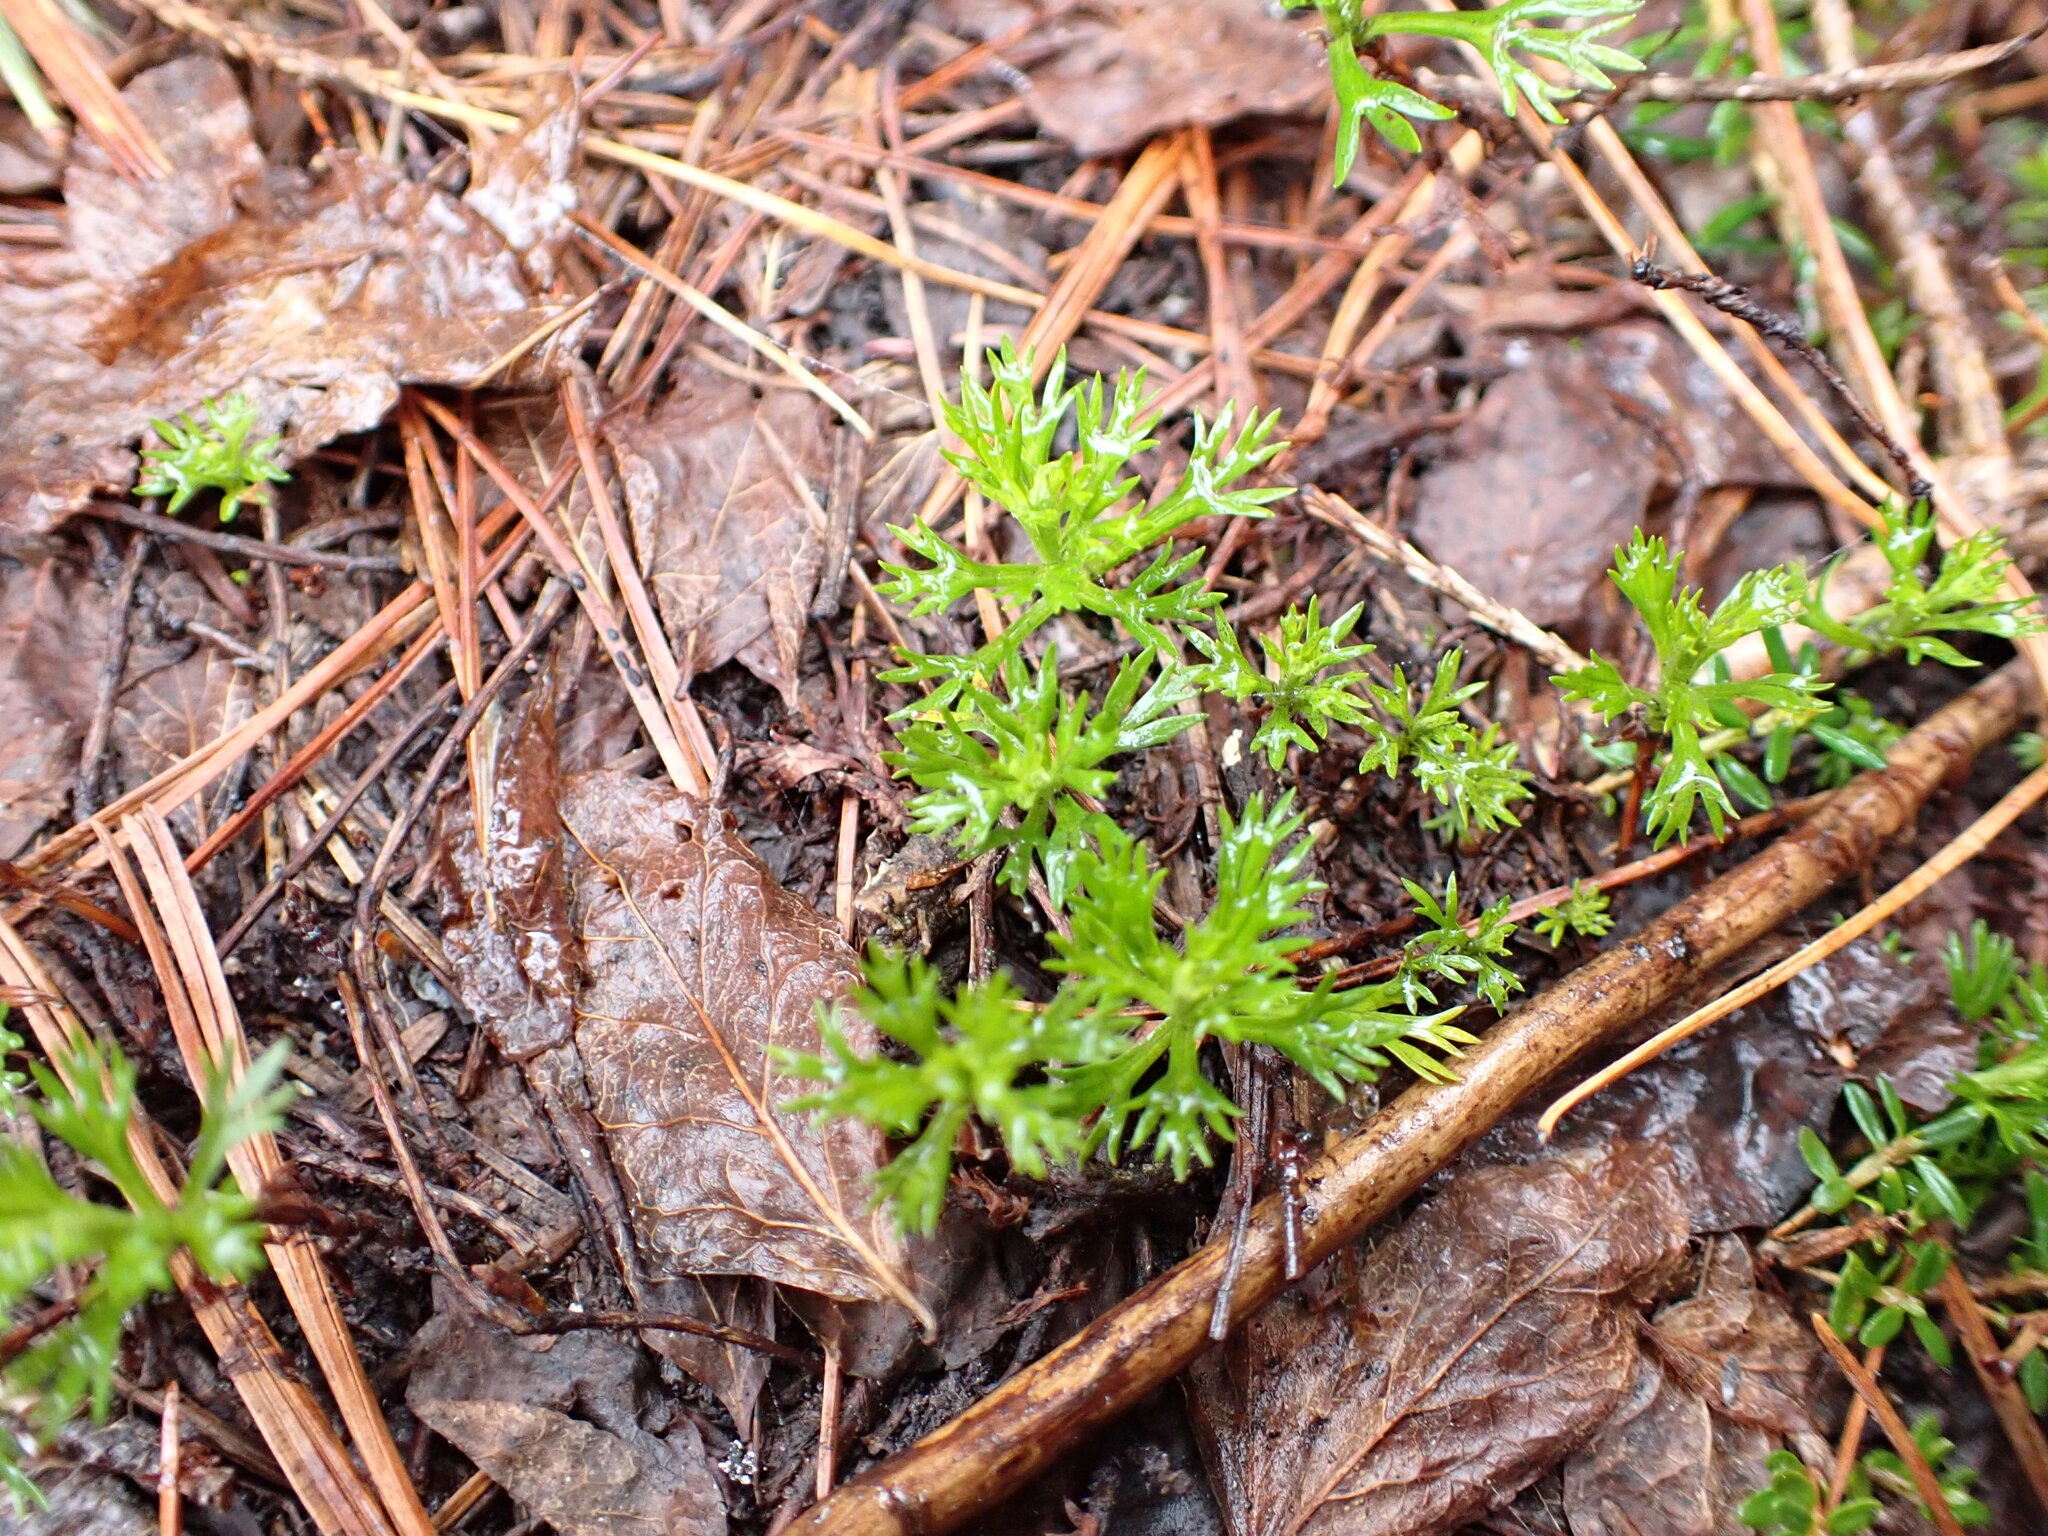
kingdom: Plantae
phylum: Tracheophyta
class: Magnoliopsida
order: Rosales
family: Rosaceae
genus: Luetkea
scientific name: Luetkea pectinata
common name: Partridgefoot
